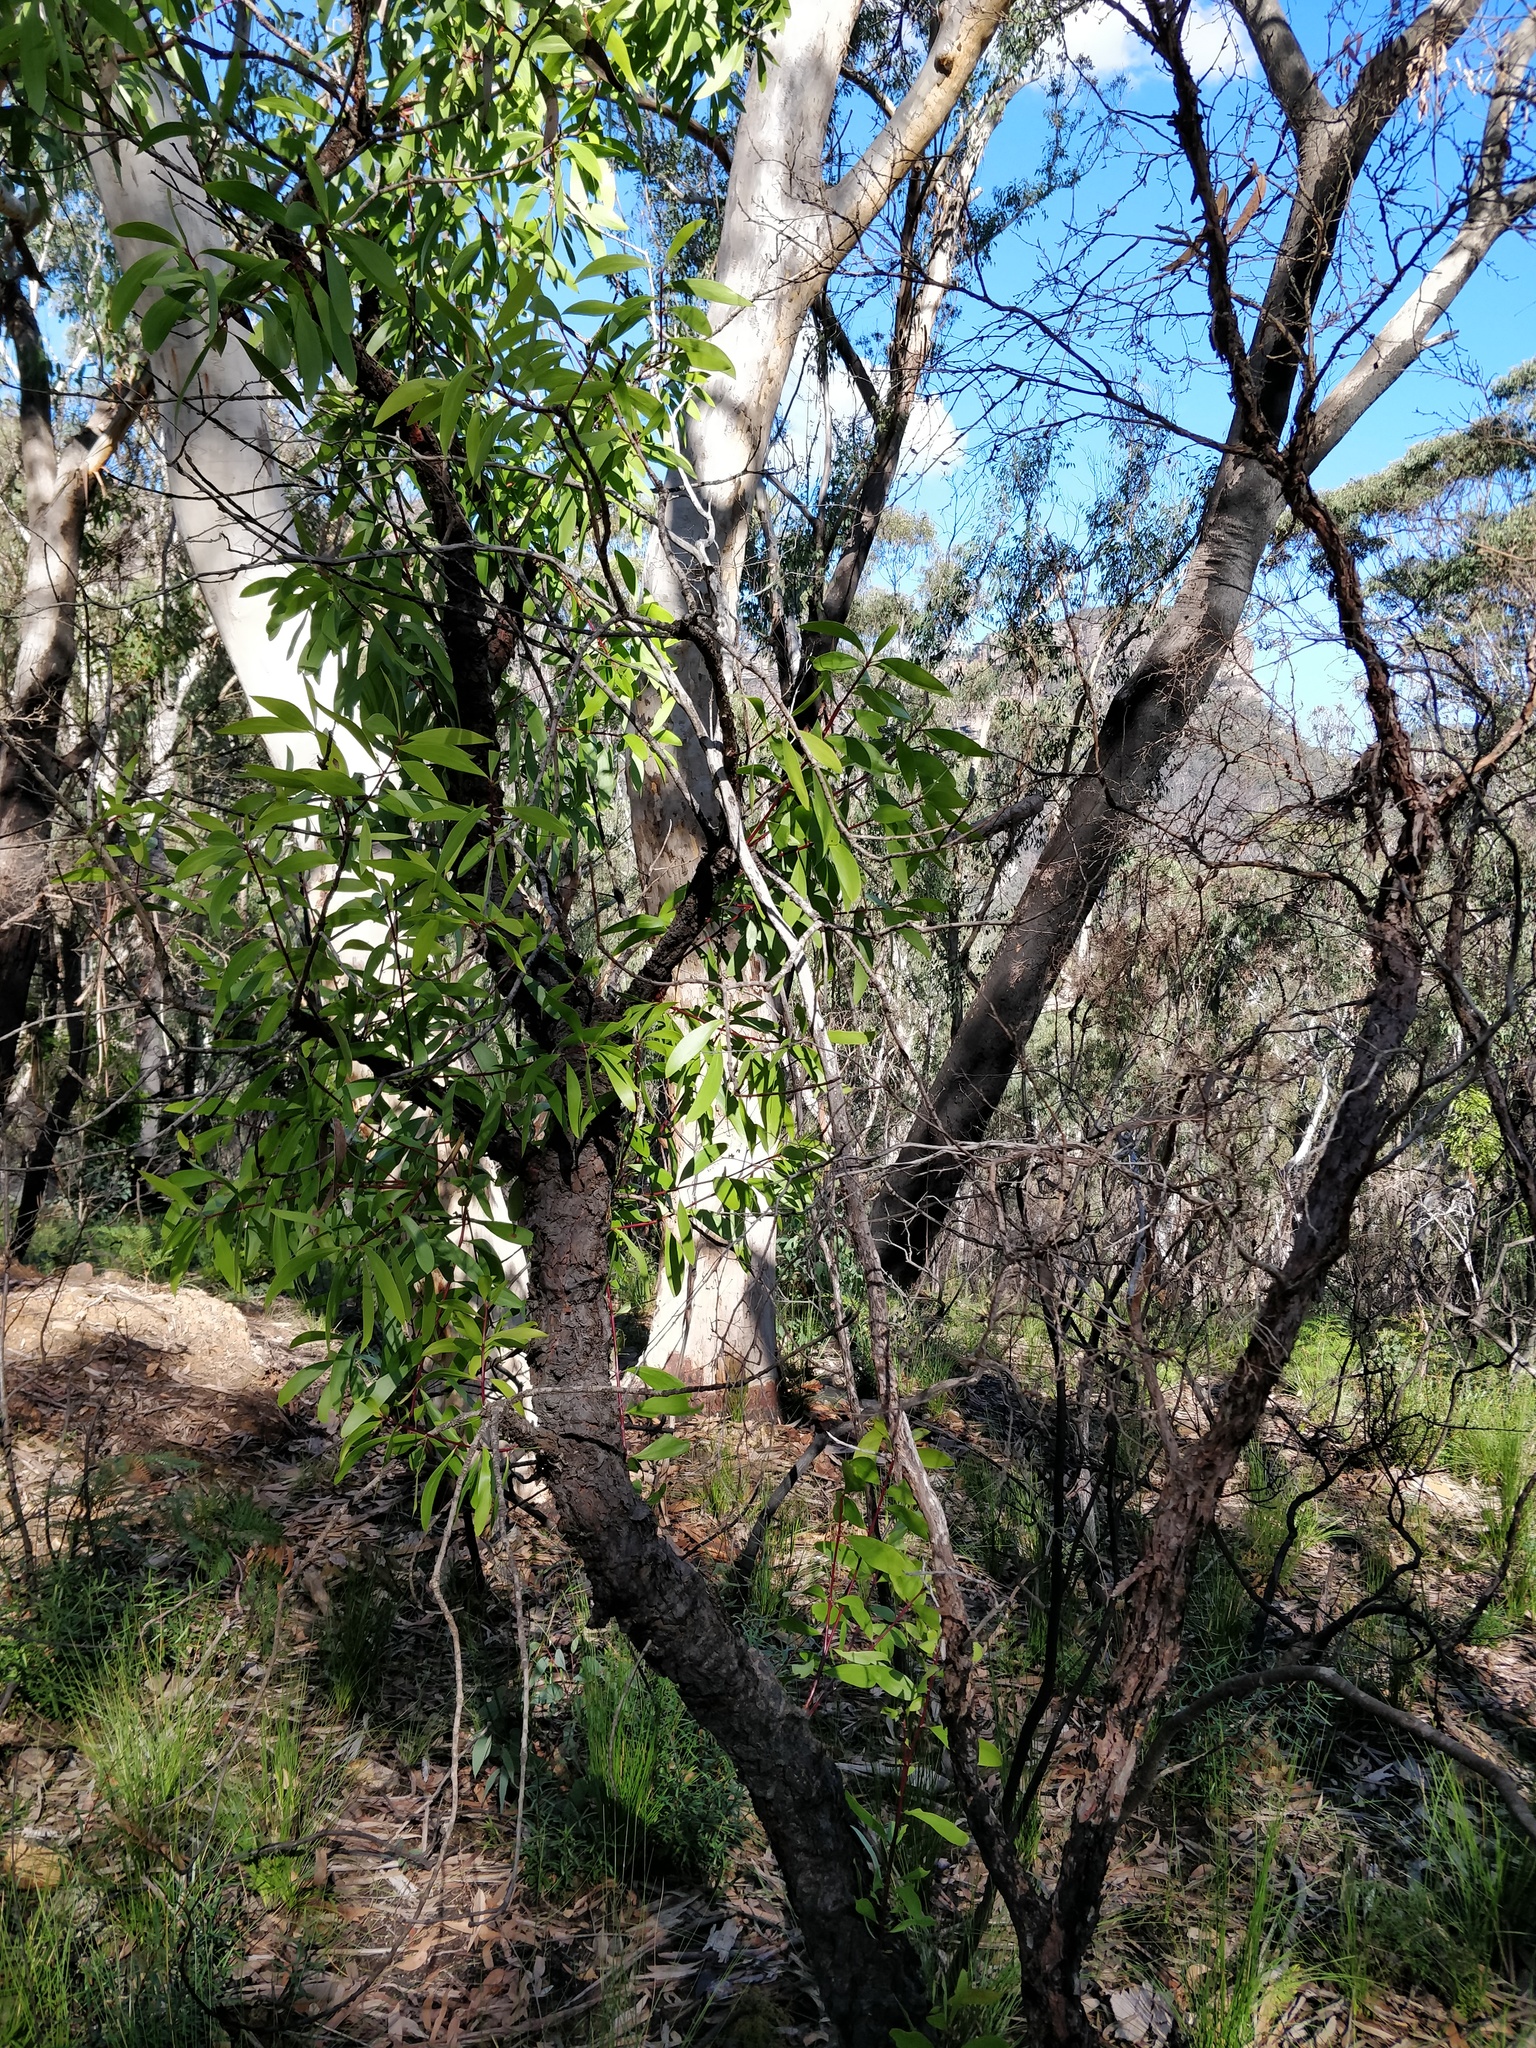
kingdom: Plantae
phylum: Tracheophyta
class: Magnoliopsida
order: Proteales
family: Proteaceae
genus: Persoonia
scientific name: Persoonia levis
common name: Smooth geebung
